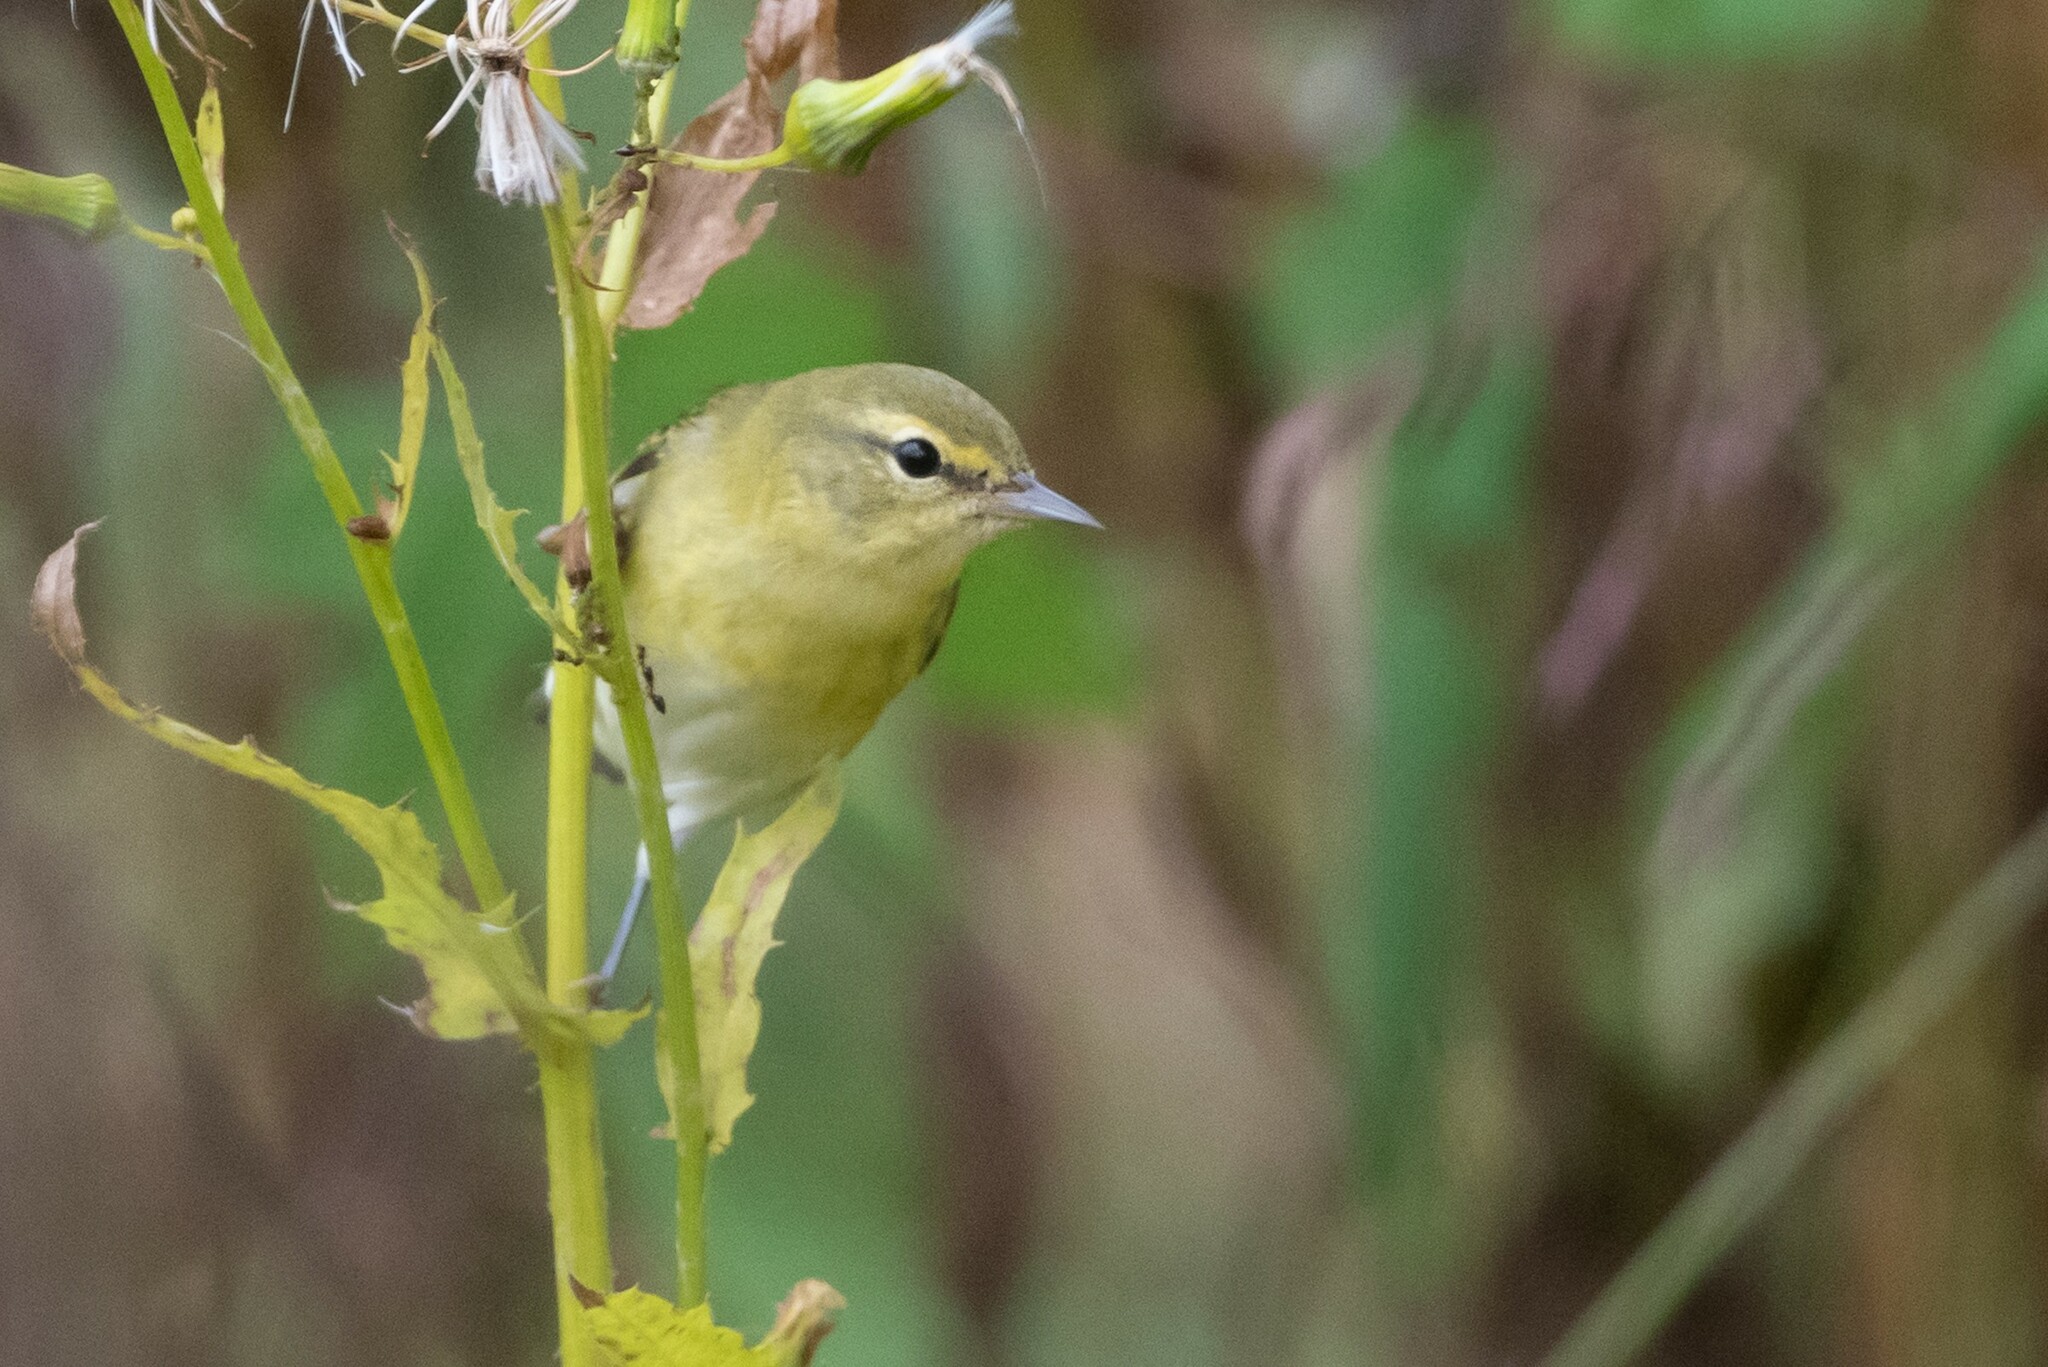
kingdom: Animalia
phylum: Chordata
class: Aves
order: Passeriformes
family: Parulidae
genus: Leiothlypis
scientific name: Leiothlypis peregrina
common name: Tennessee warbler
